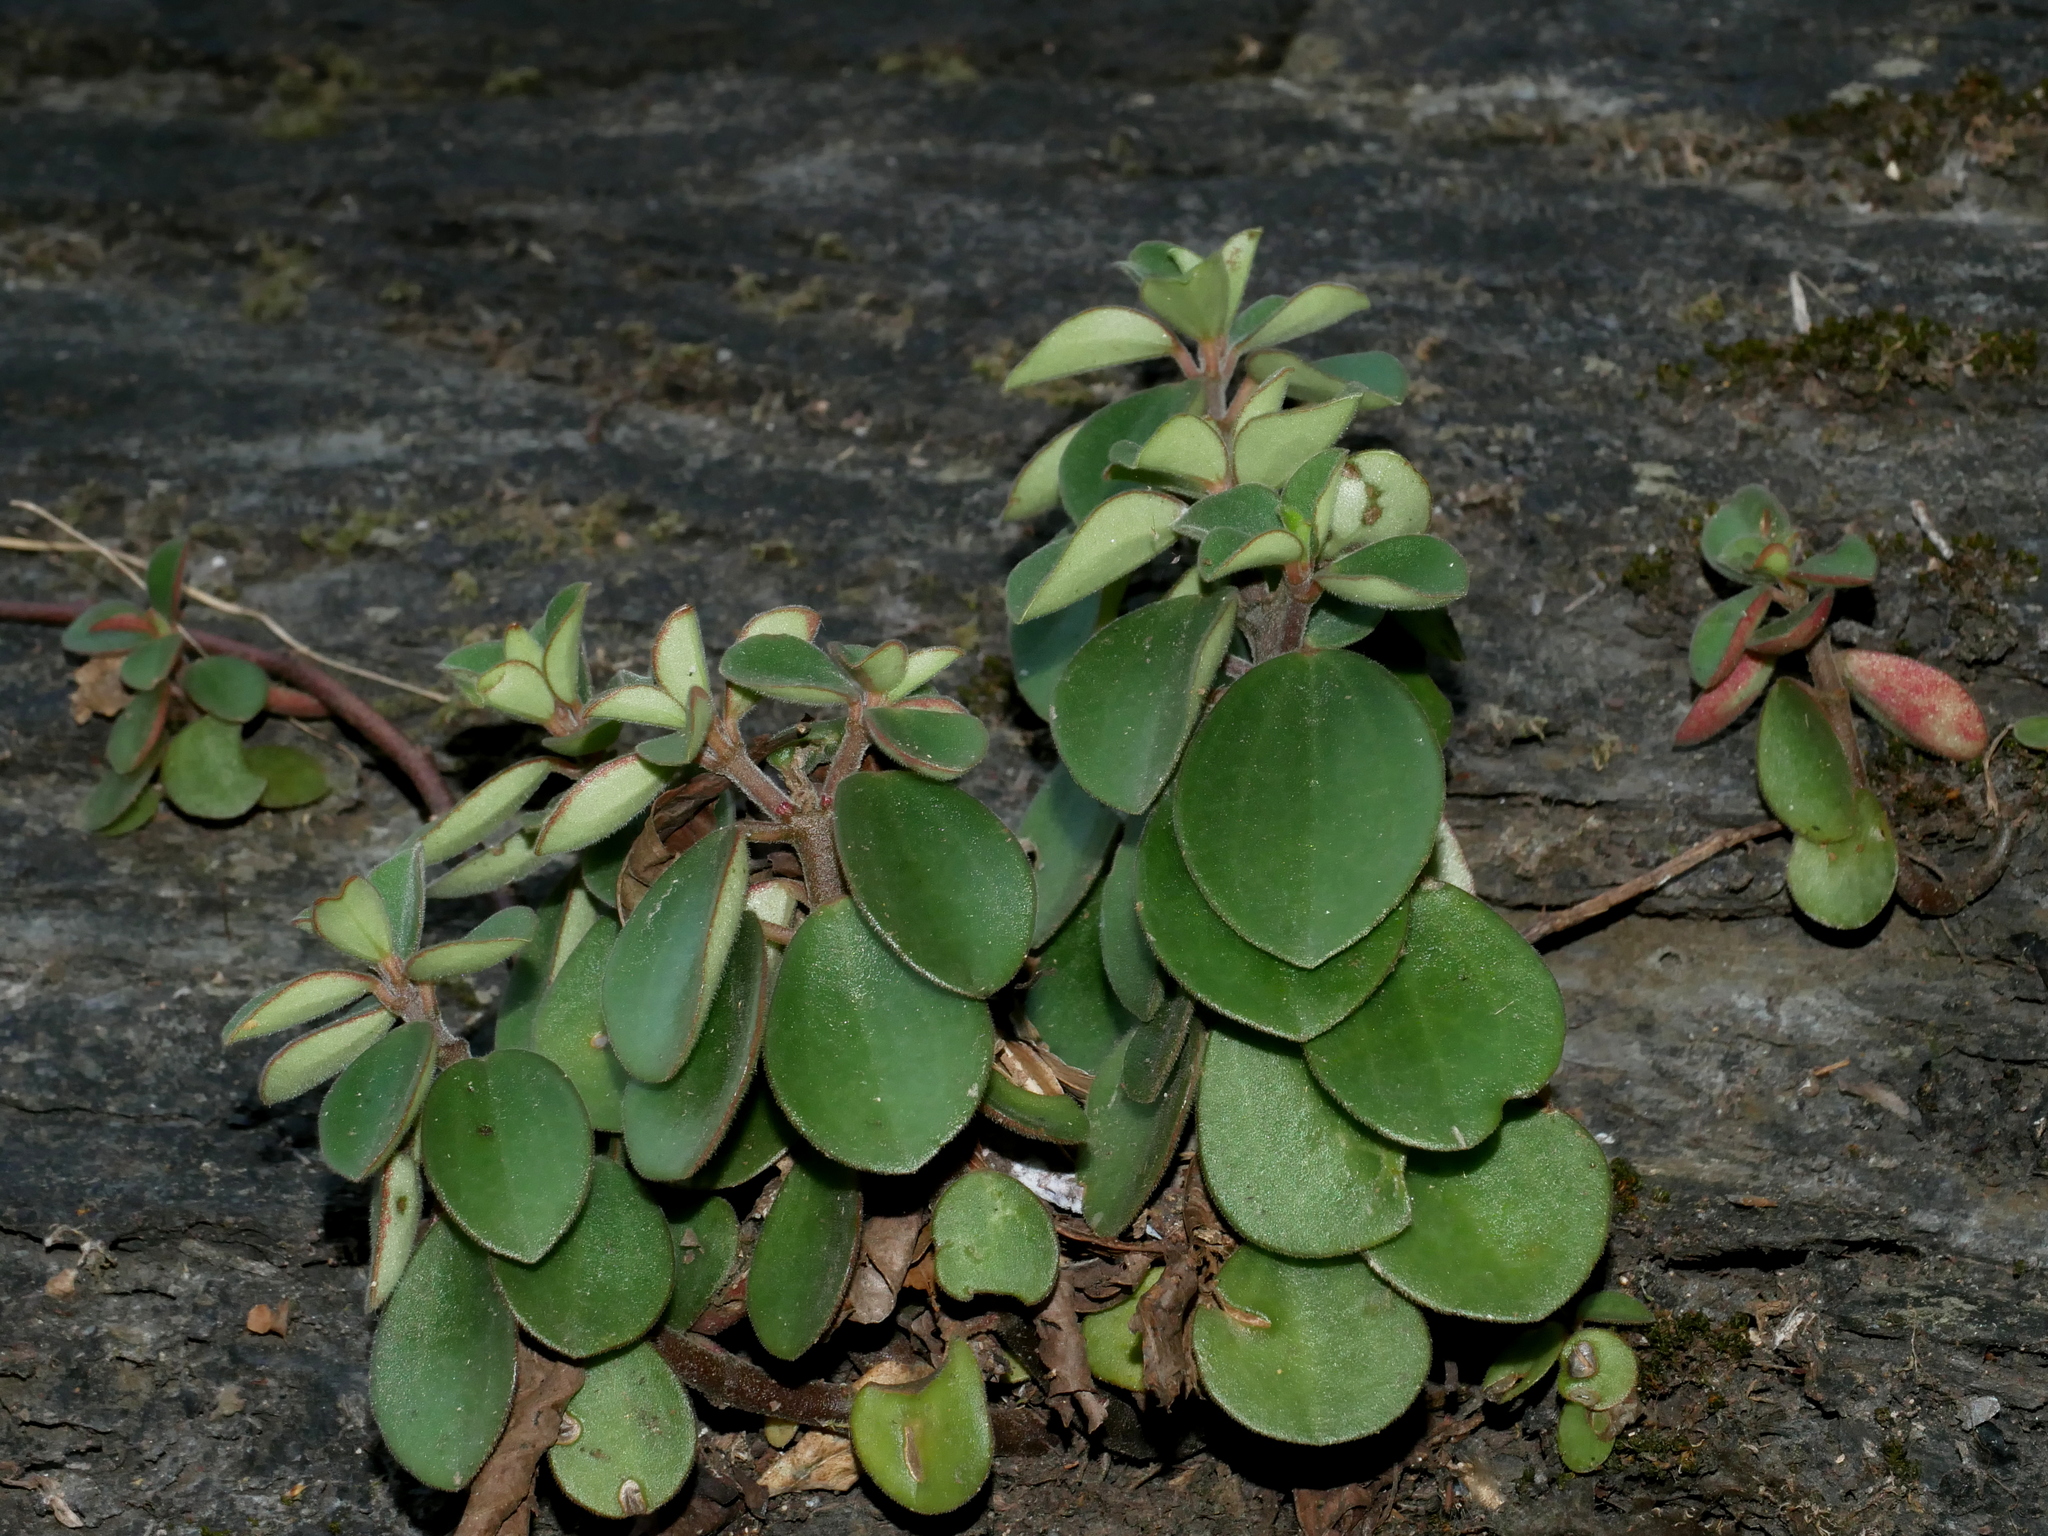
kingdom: Plantae
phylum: Tracheophyta
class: Magnoliopsida
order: Piperales
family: Piperaceae
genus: Peperomia
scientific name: Peperomia leptostachya
